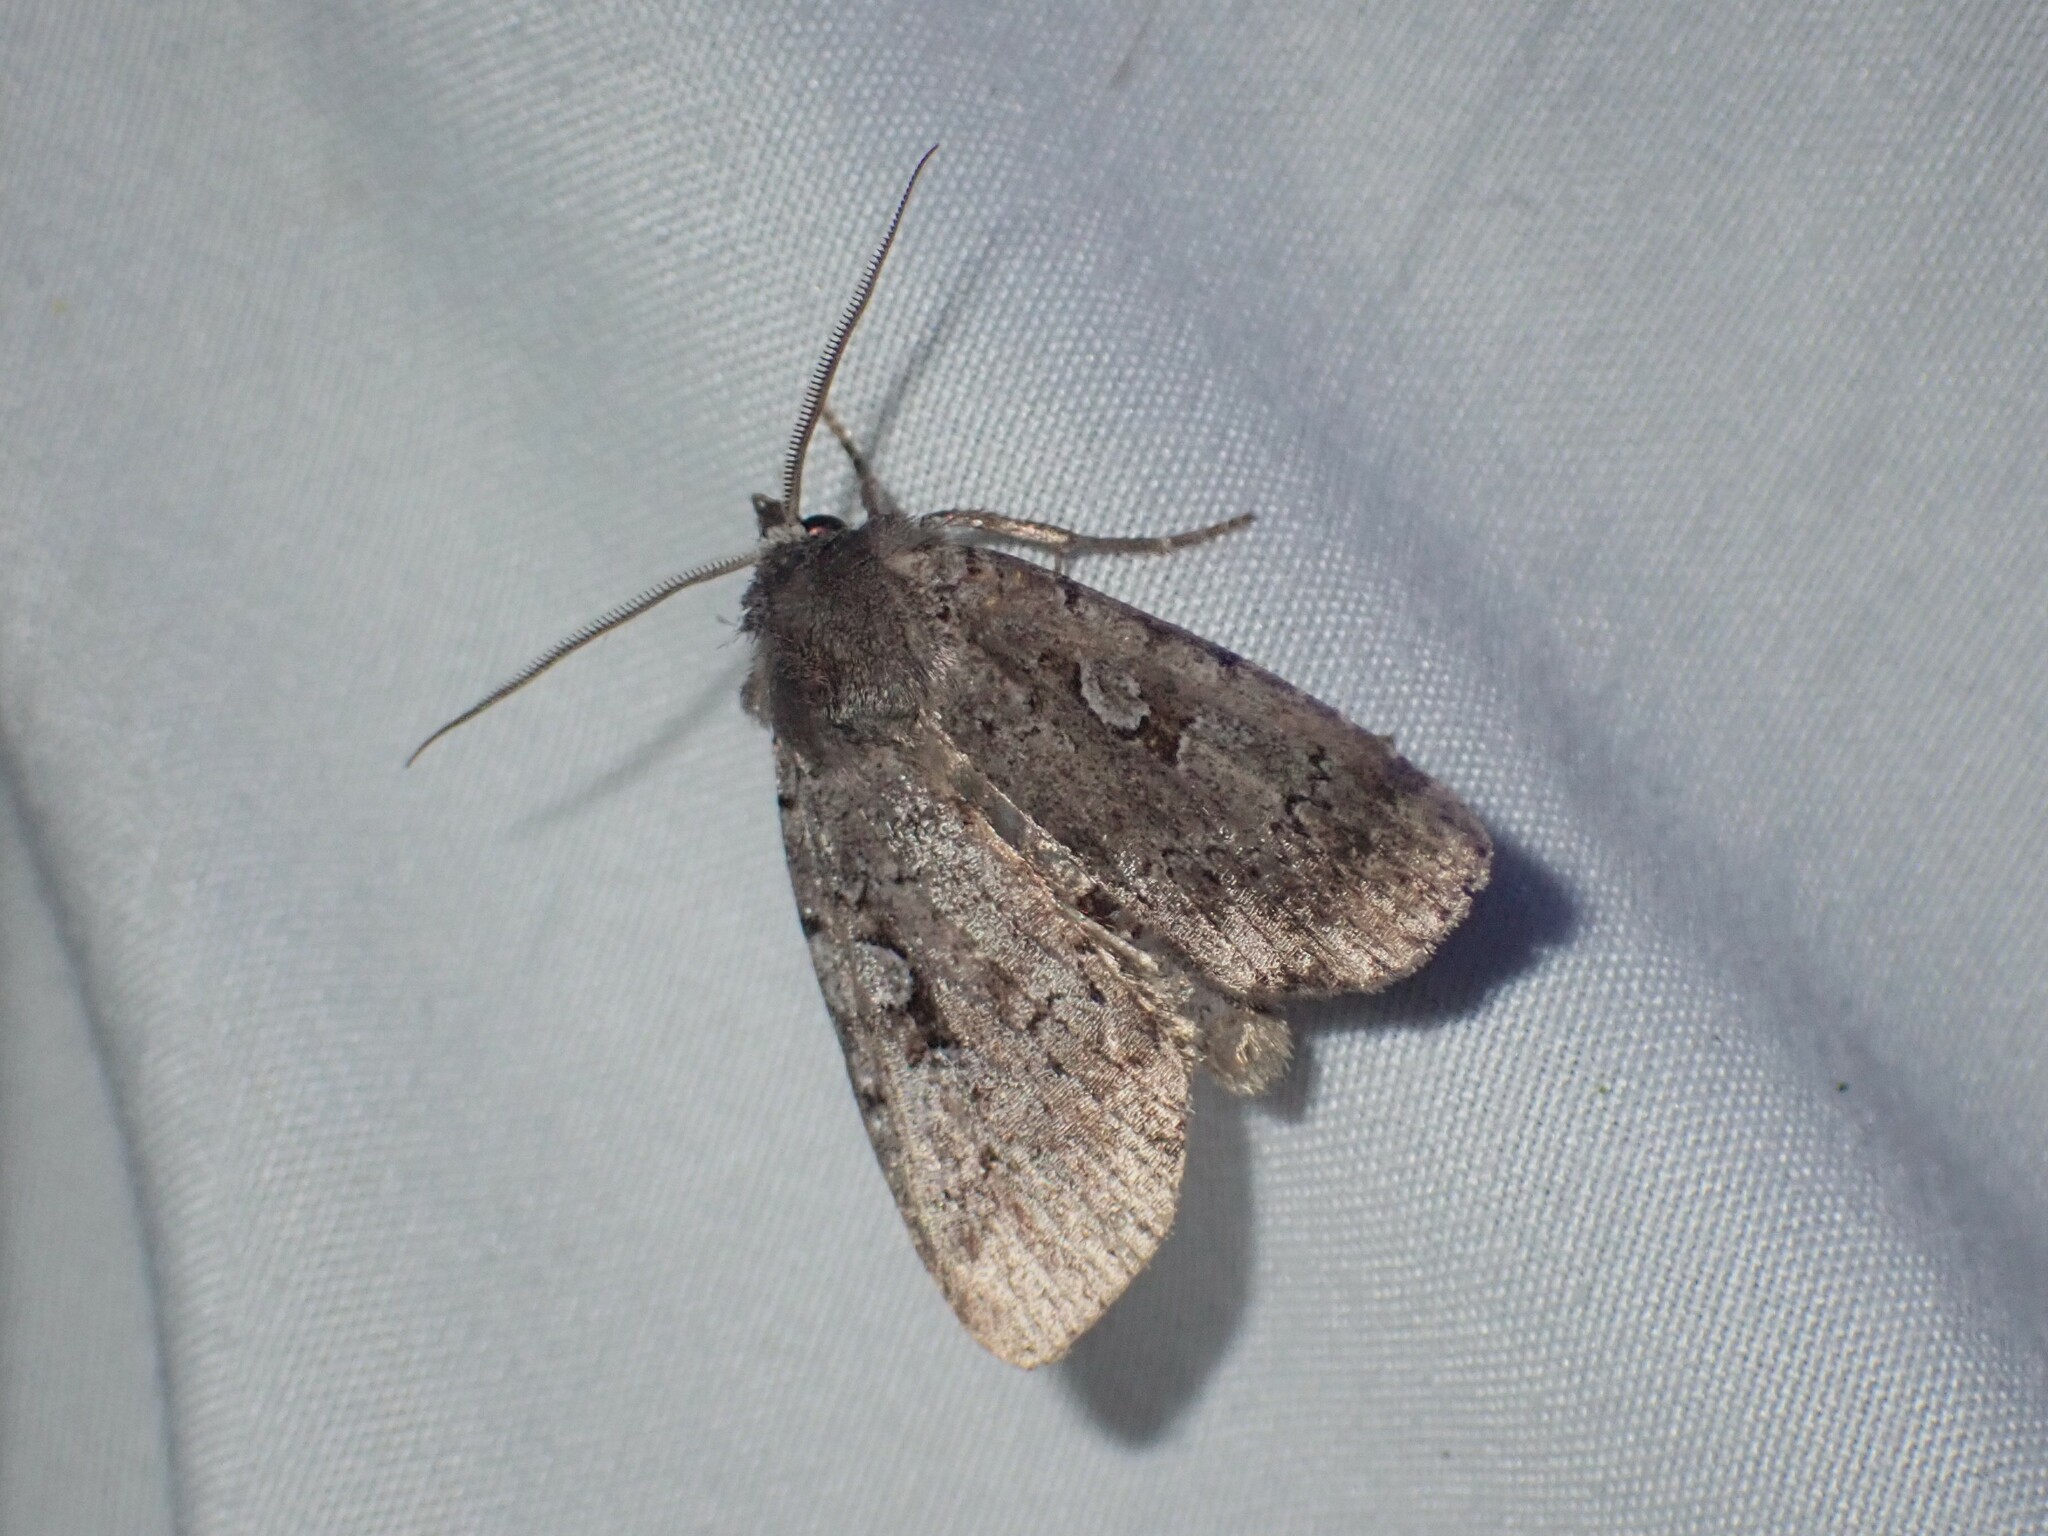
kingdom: Animalia
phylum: Arthropoda
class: Insecta
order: Lepidoptera
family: Noctuidae
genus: Coenophila
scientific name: Coenophila opacifrons
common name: Blueberry dart
